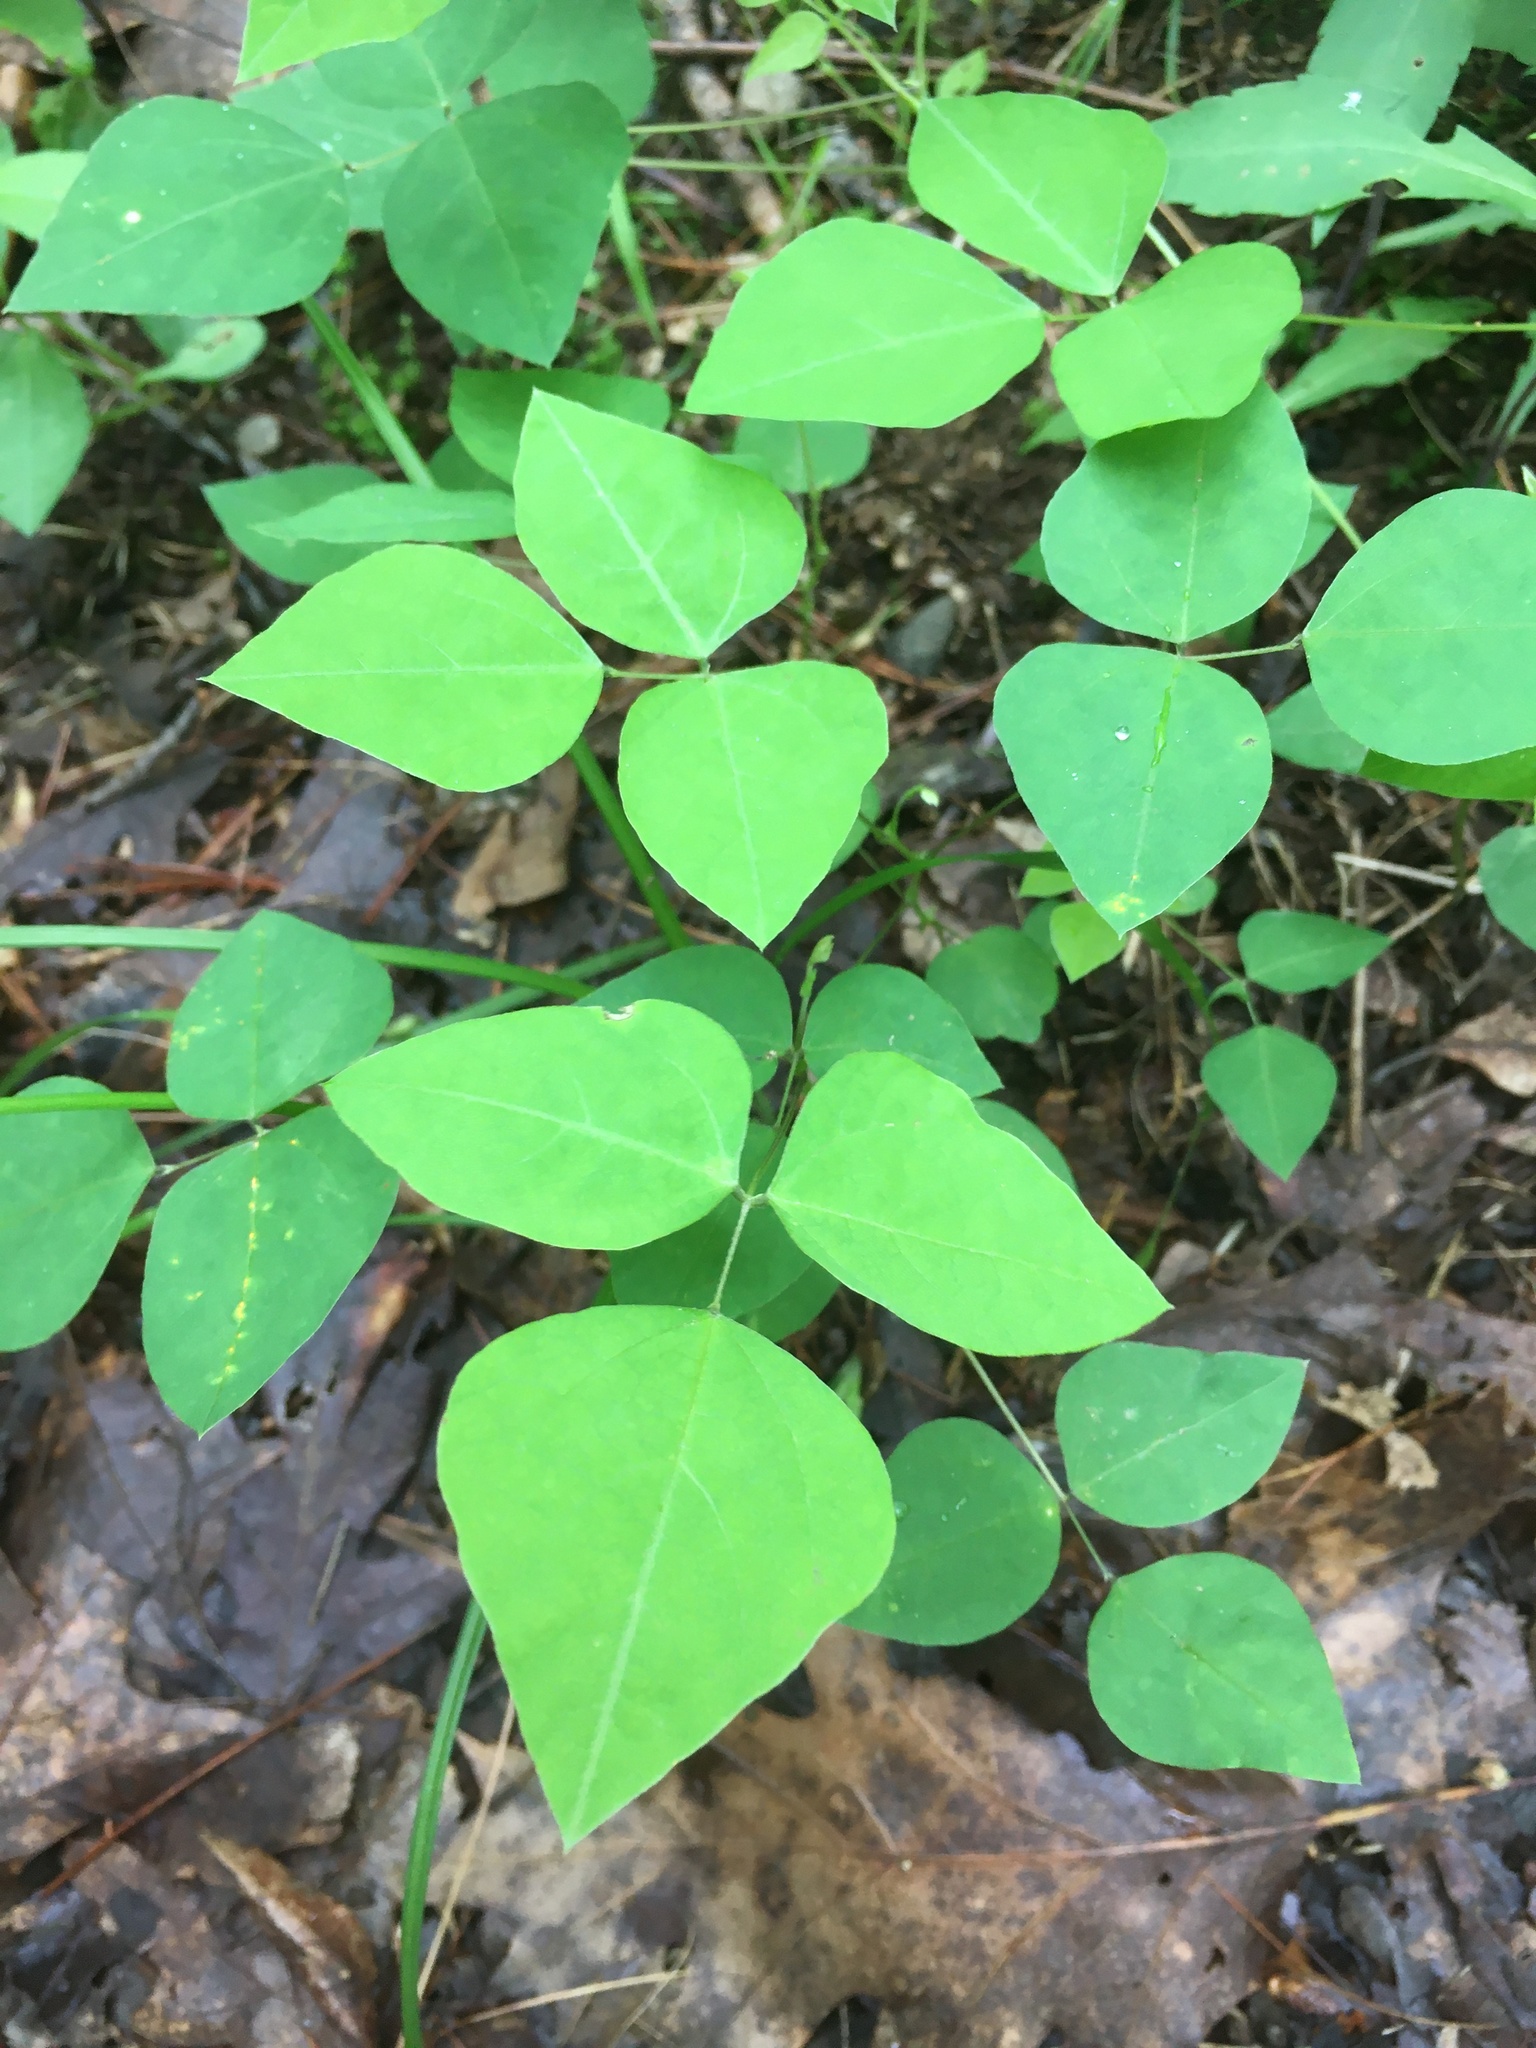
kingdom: Plantae
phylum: Tracheophyta
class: Magnoliopsida
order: Fabales
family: Fabaceae
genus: Amphicarpaea
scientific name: Amphicarpaea bracteata
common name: American hog peanut
